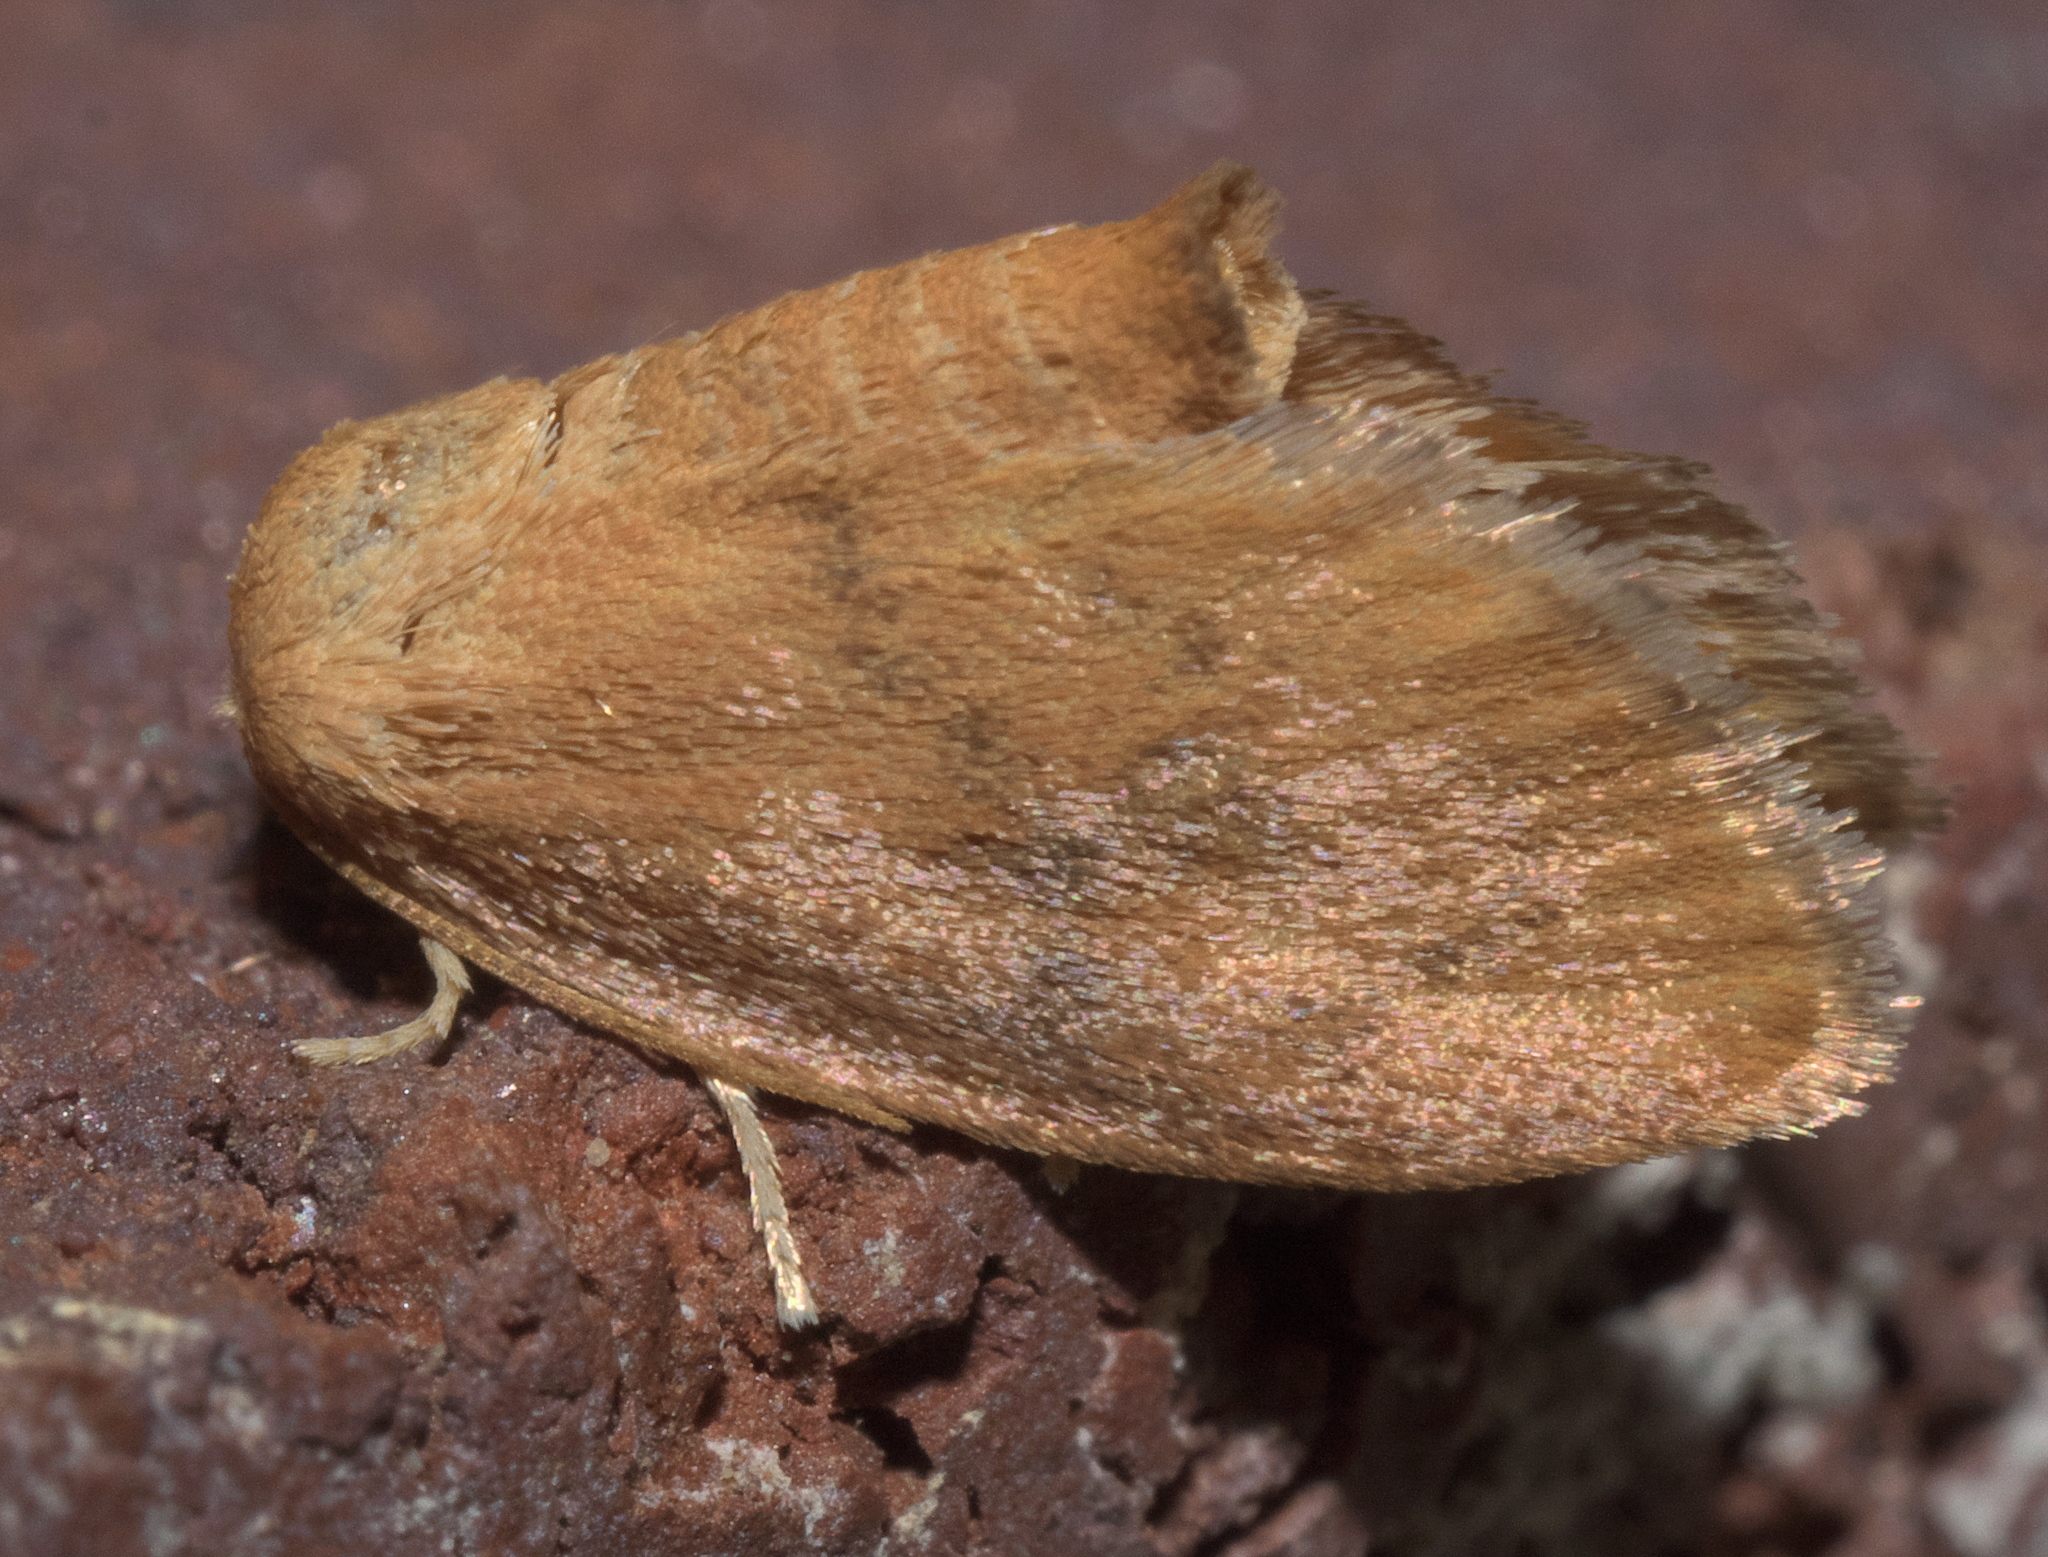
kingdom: Animalia
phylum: Arthropoda
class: Insecta
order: Lepidoptera
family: Limacodidae
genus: Heterogenea
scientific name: Heterogenea shurtleffi
